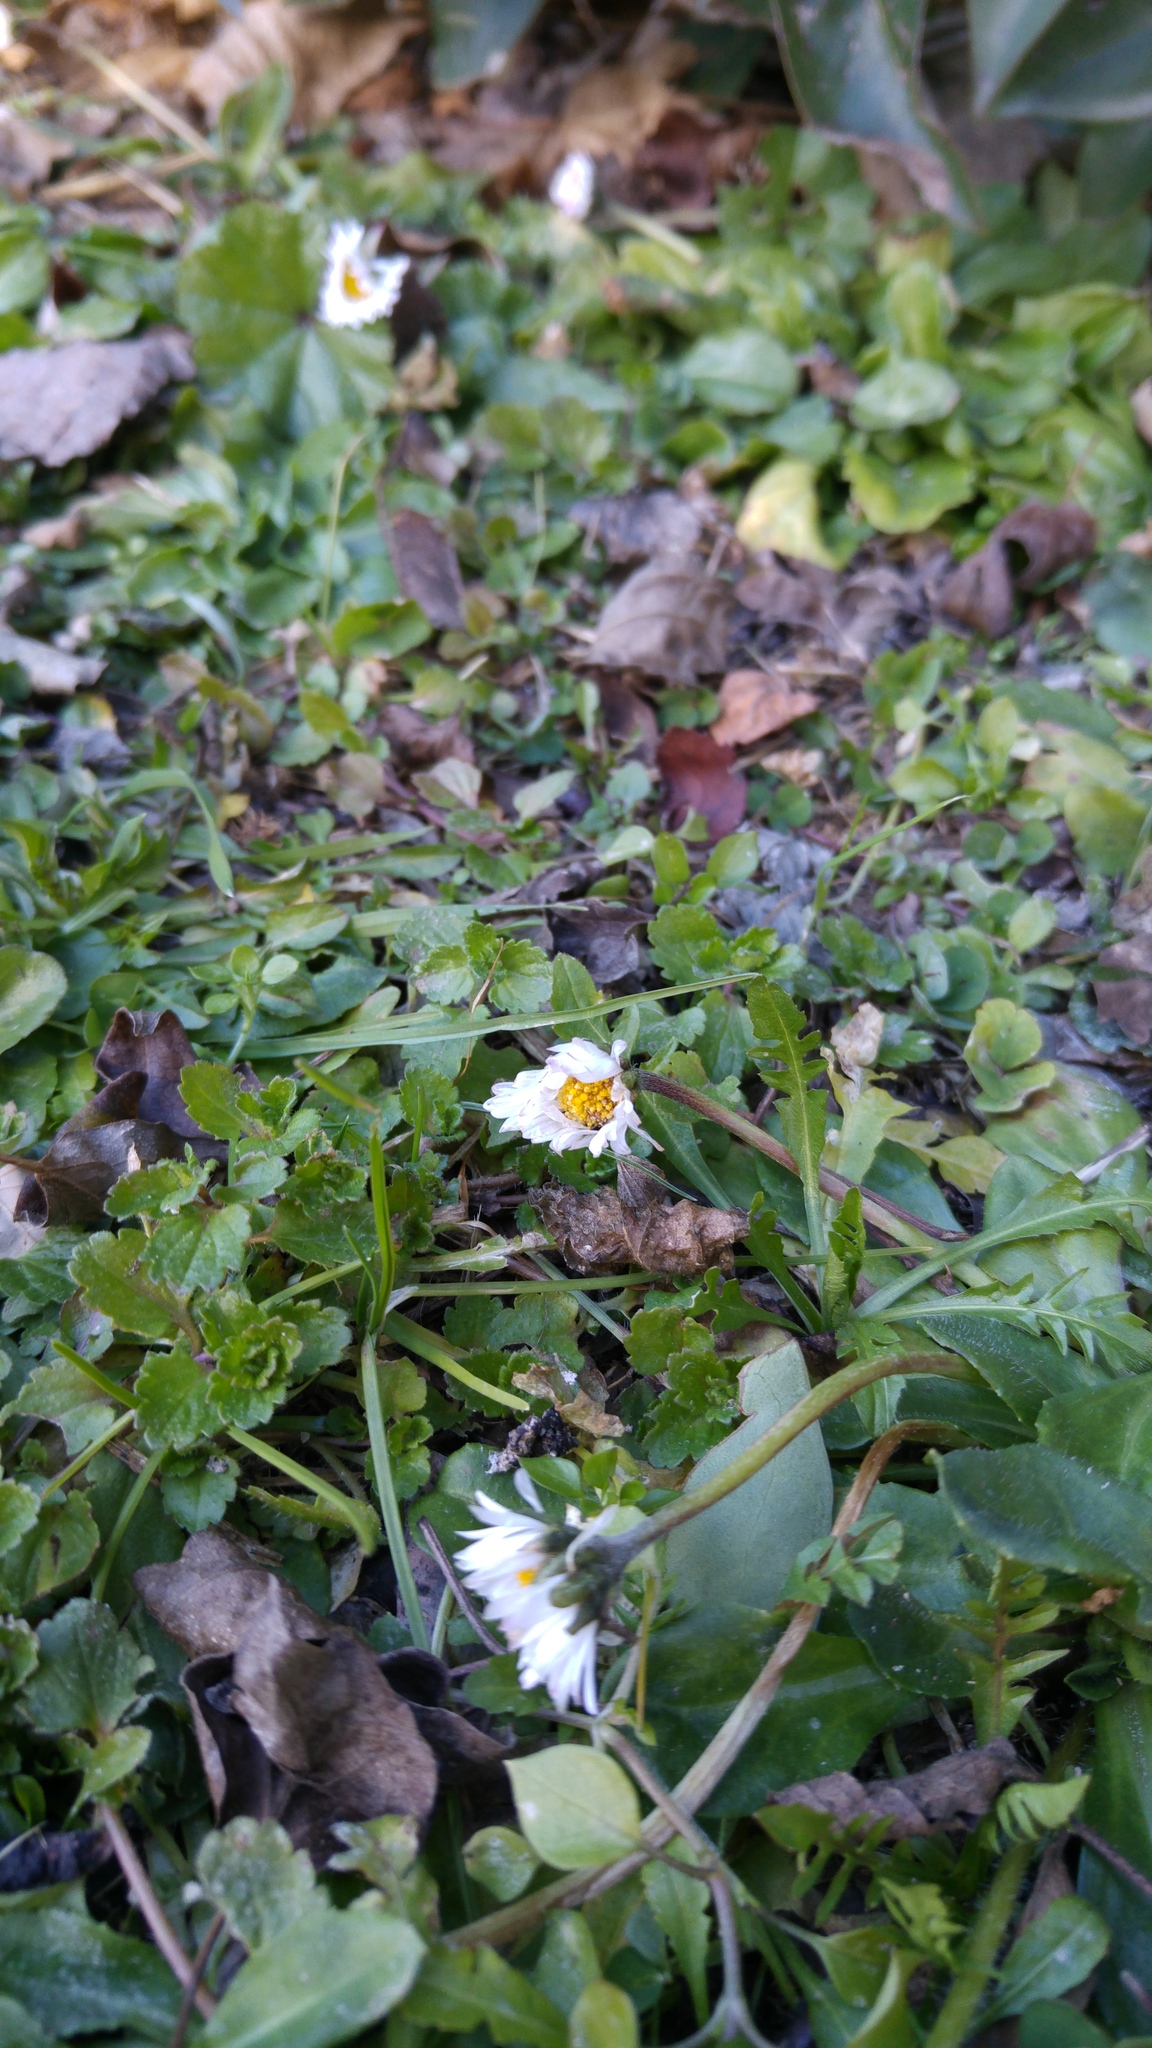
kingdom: Plantae
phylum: Tracheophyta
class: Magnoliopsida
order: Asterales
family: Asteraceae
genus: Bellis
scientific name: Bellis perennis
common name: Lawndaisy
